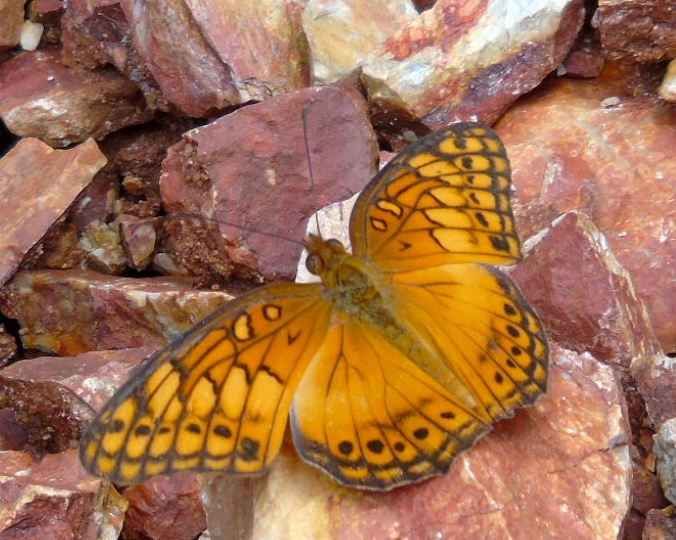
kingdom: Animalia
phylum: Arthropoda
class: Insecta
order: Lepidoptera
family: Nymphalidae
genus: Euptoieta
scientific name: Euptoieta hegesia
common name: Mexican fritillary
